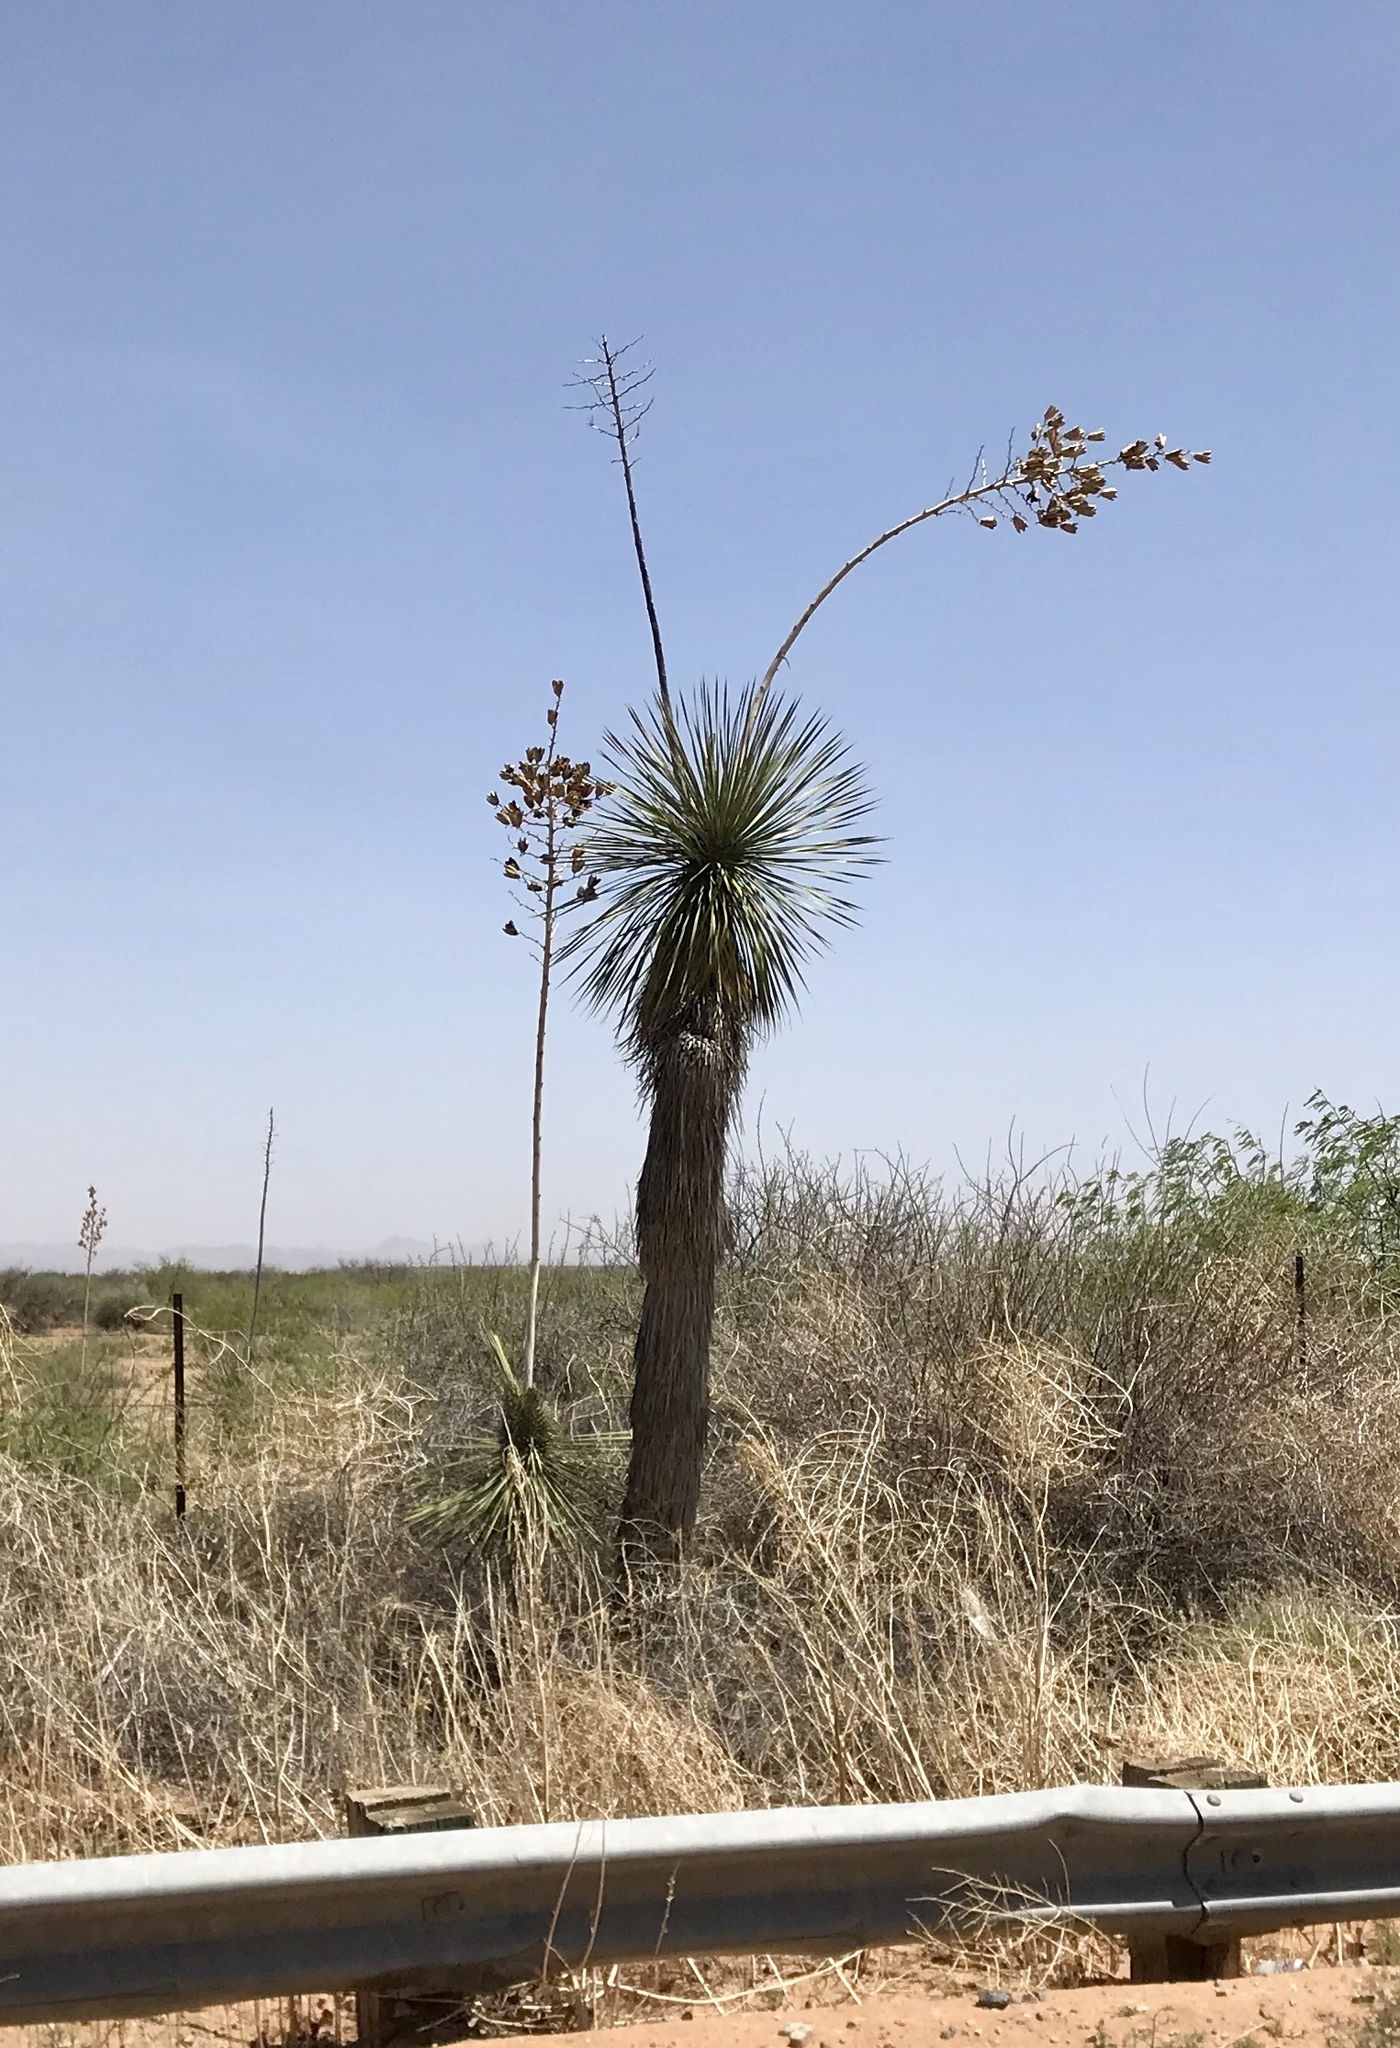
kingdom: Plantae
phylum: Tracheophyta
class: Liliopsida
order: Asparagales
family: Asparagaceae
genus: Yucca
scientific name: Yucca elata
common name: Palmella
